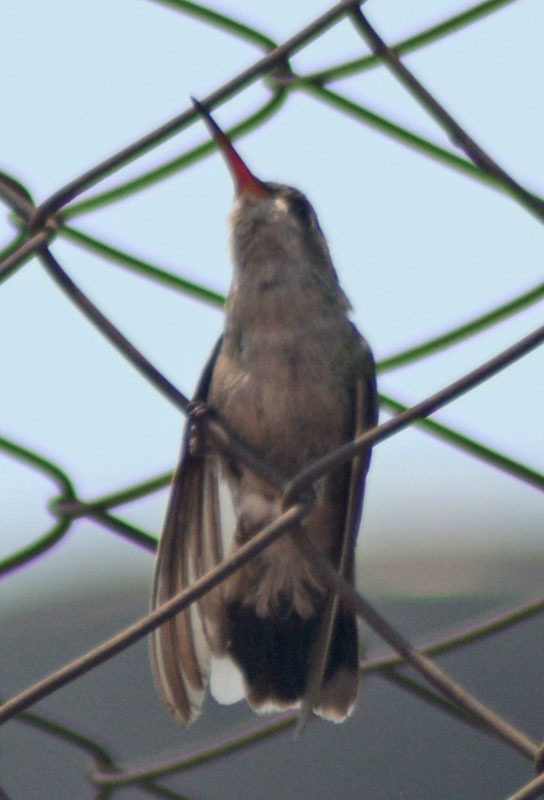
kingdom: Animalia
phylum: Chordata
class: Aves
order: Apodiformes
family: Trochilidae
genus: Cynanthus
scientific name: Cynanthus latirostris
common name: Broad-billed hummingbird
